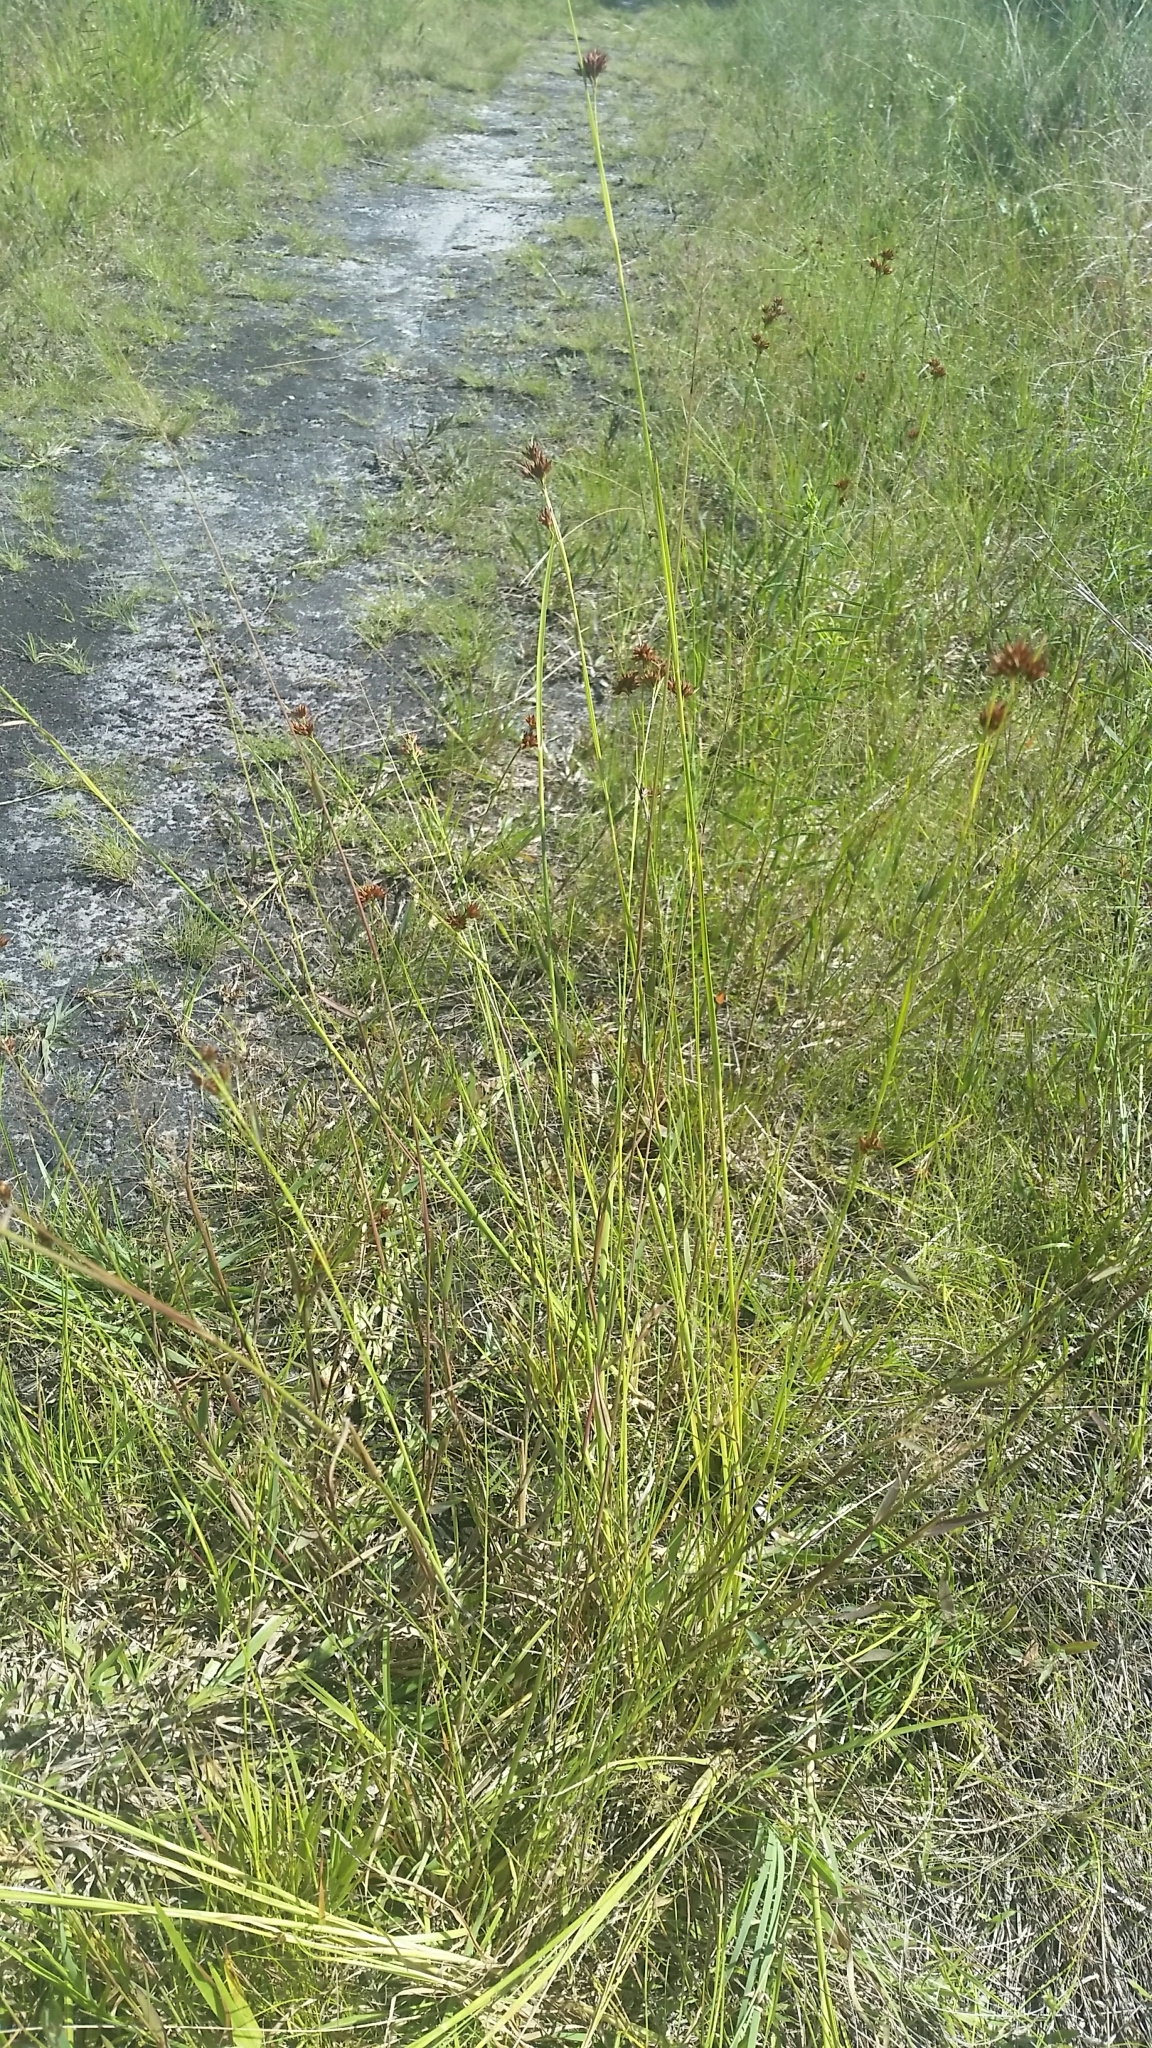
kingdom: Plantae
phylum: Tracheophyta
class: Liliopsida
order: Poales
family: Cyperaceae
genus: Rhynchospora
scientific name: Rhynchospora fascicularis
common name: Fascicled beak sedge
